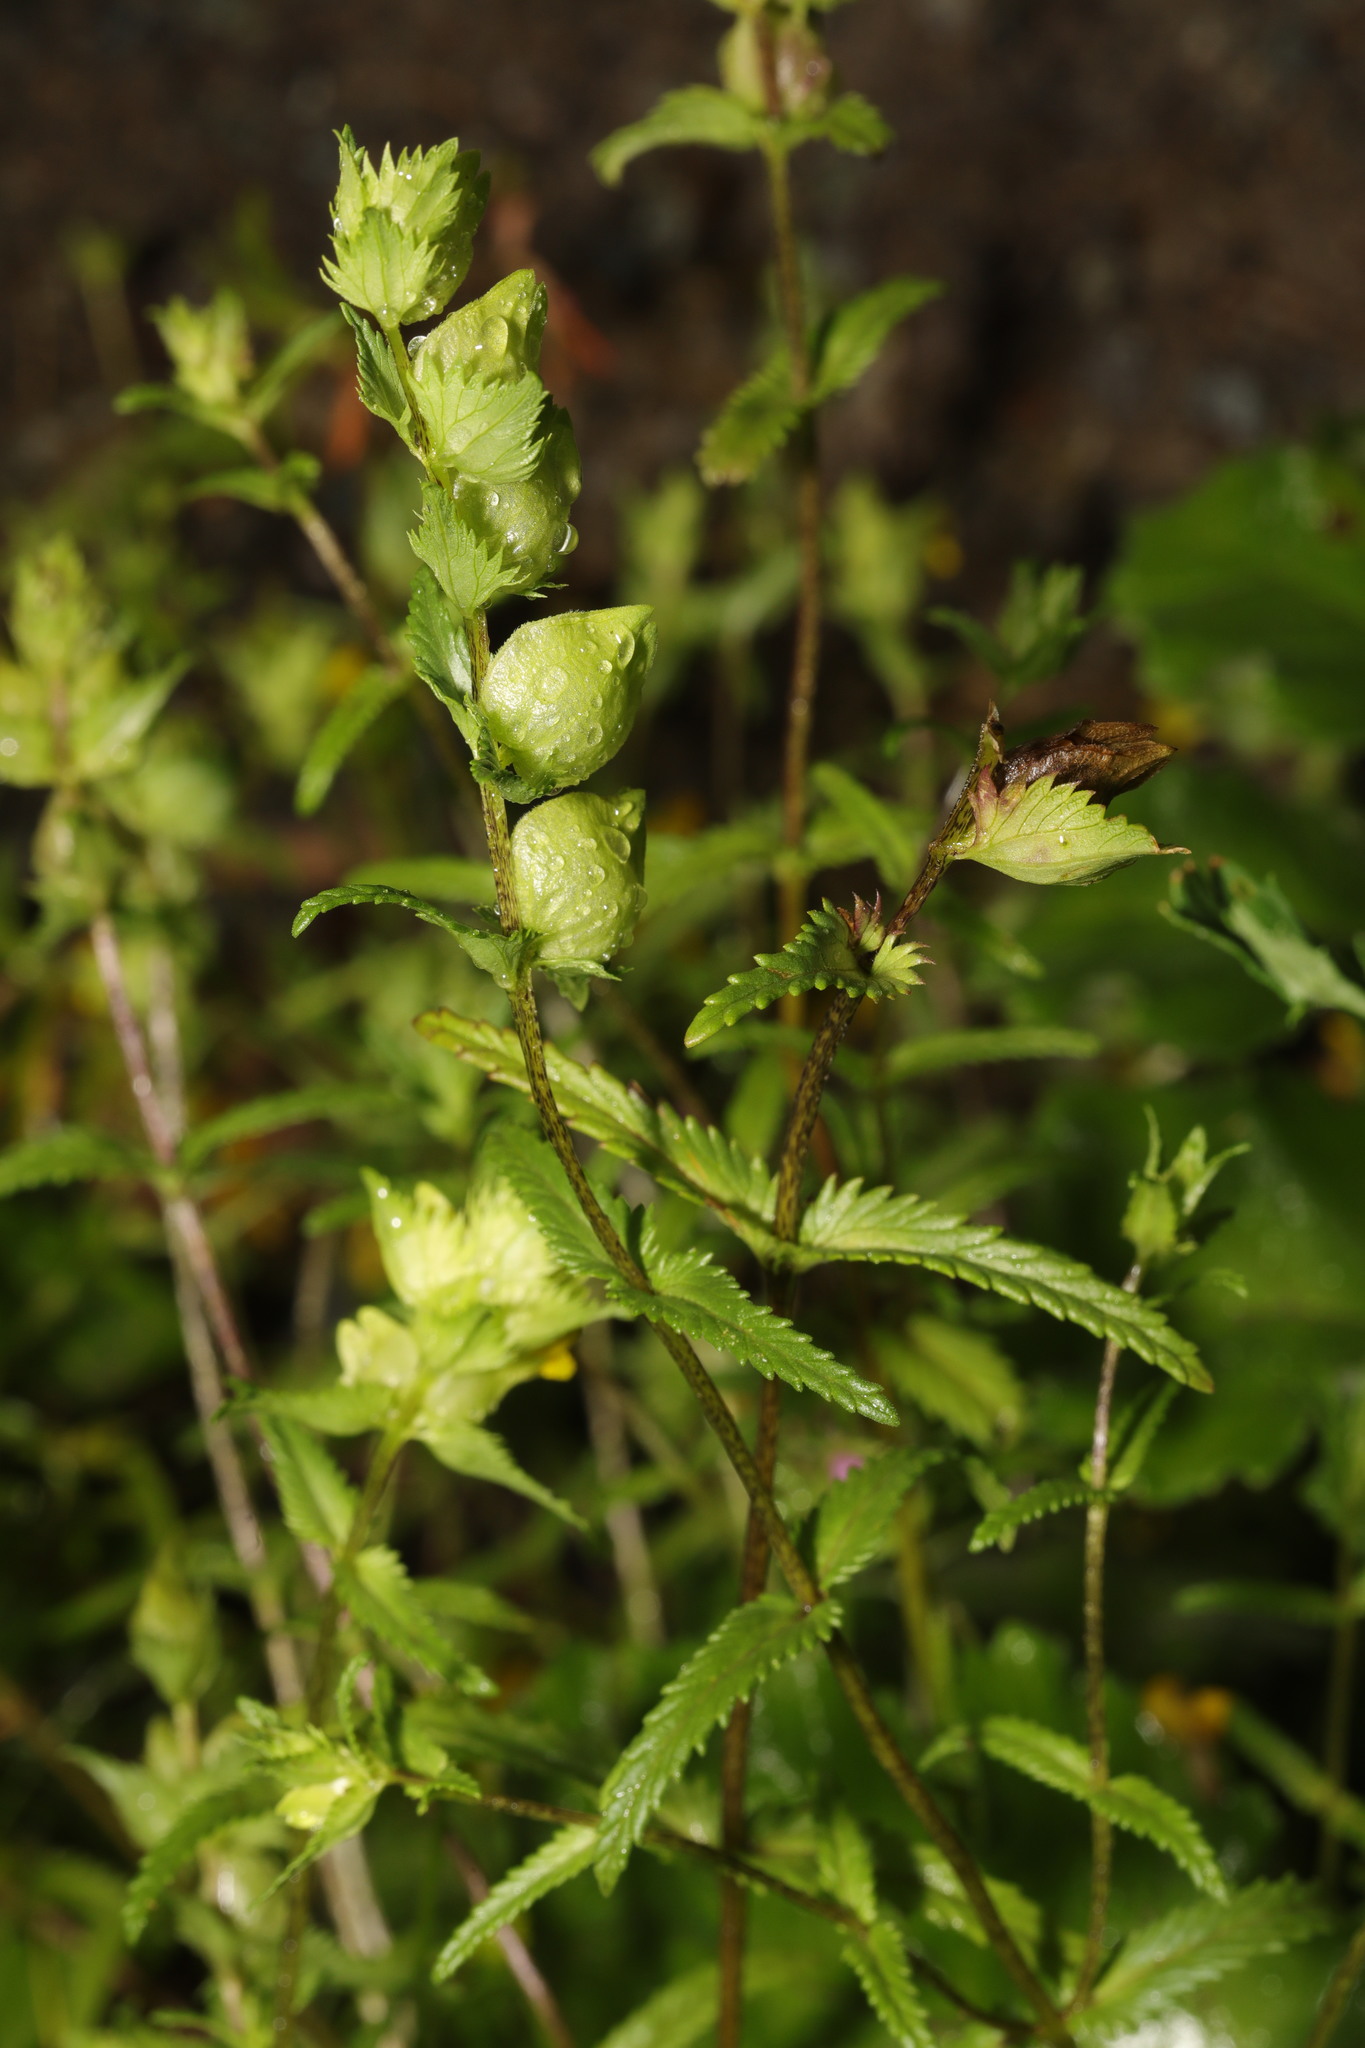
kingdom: Plantae
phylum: Tracheophyta
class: Magnoliopsida
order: Lamiales
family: Orobanchaceae
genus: Rhinanthus
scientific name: Rhinanthus minor
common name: Yellow-rattle
